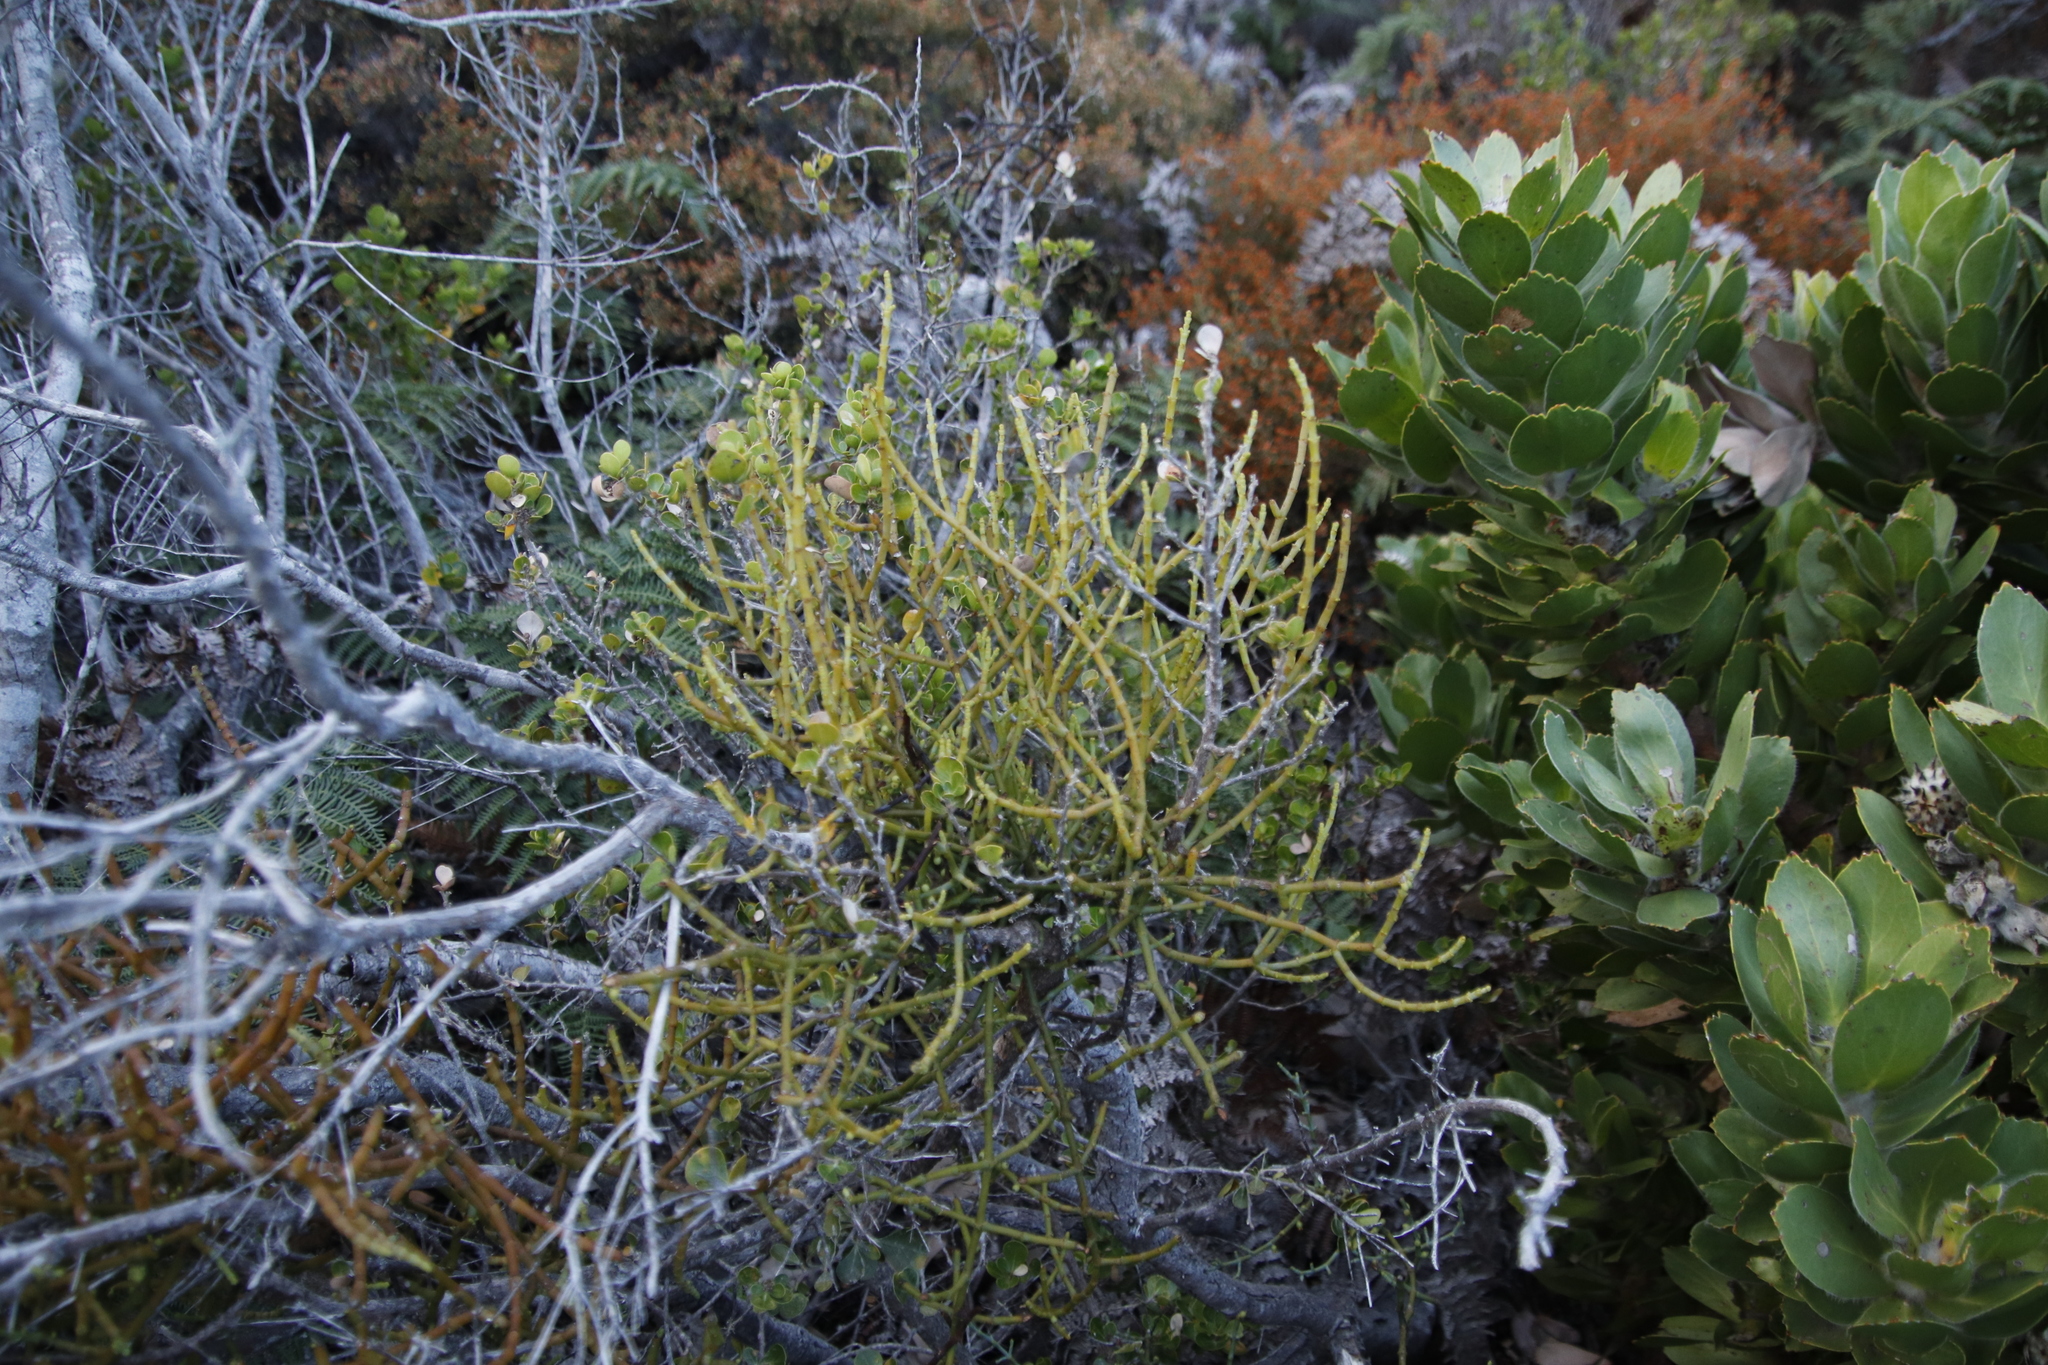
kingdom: Plantae
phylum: Tracheophyta
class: Magnoliopsida
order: Santalales
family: Viscaceae
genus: Viscum
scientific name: Viscum capense
